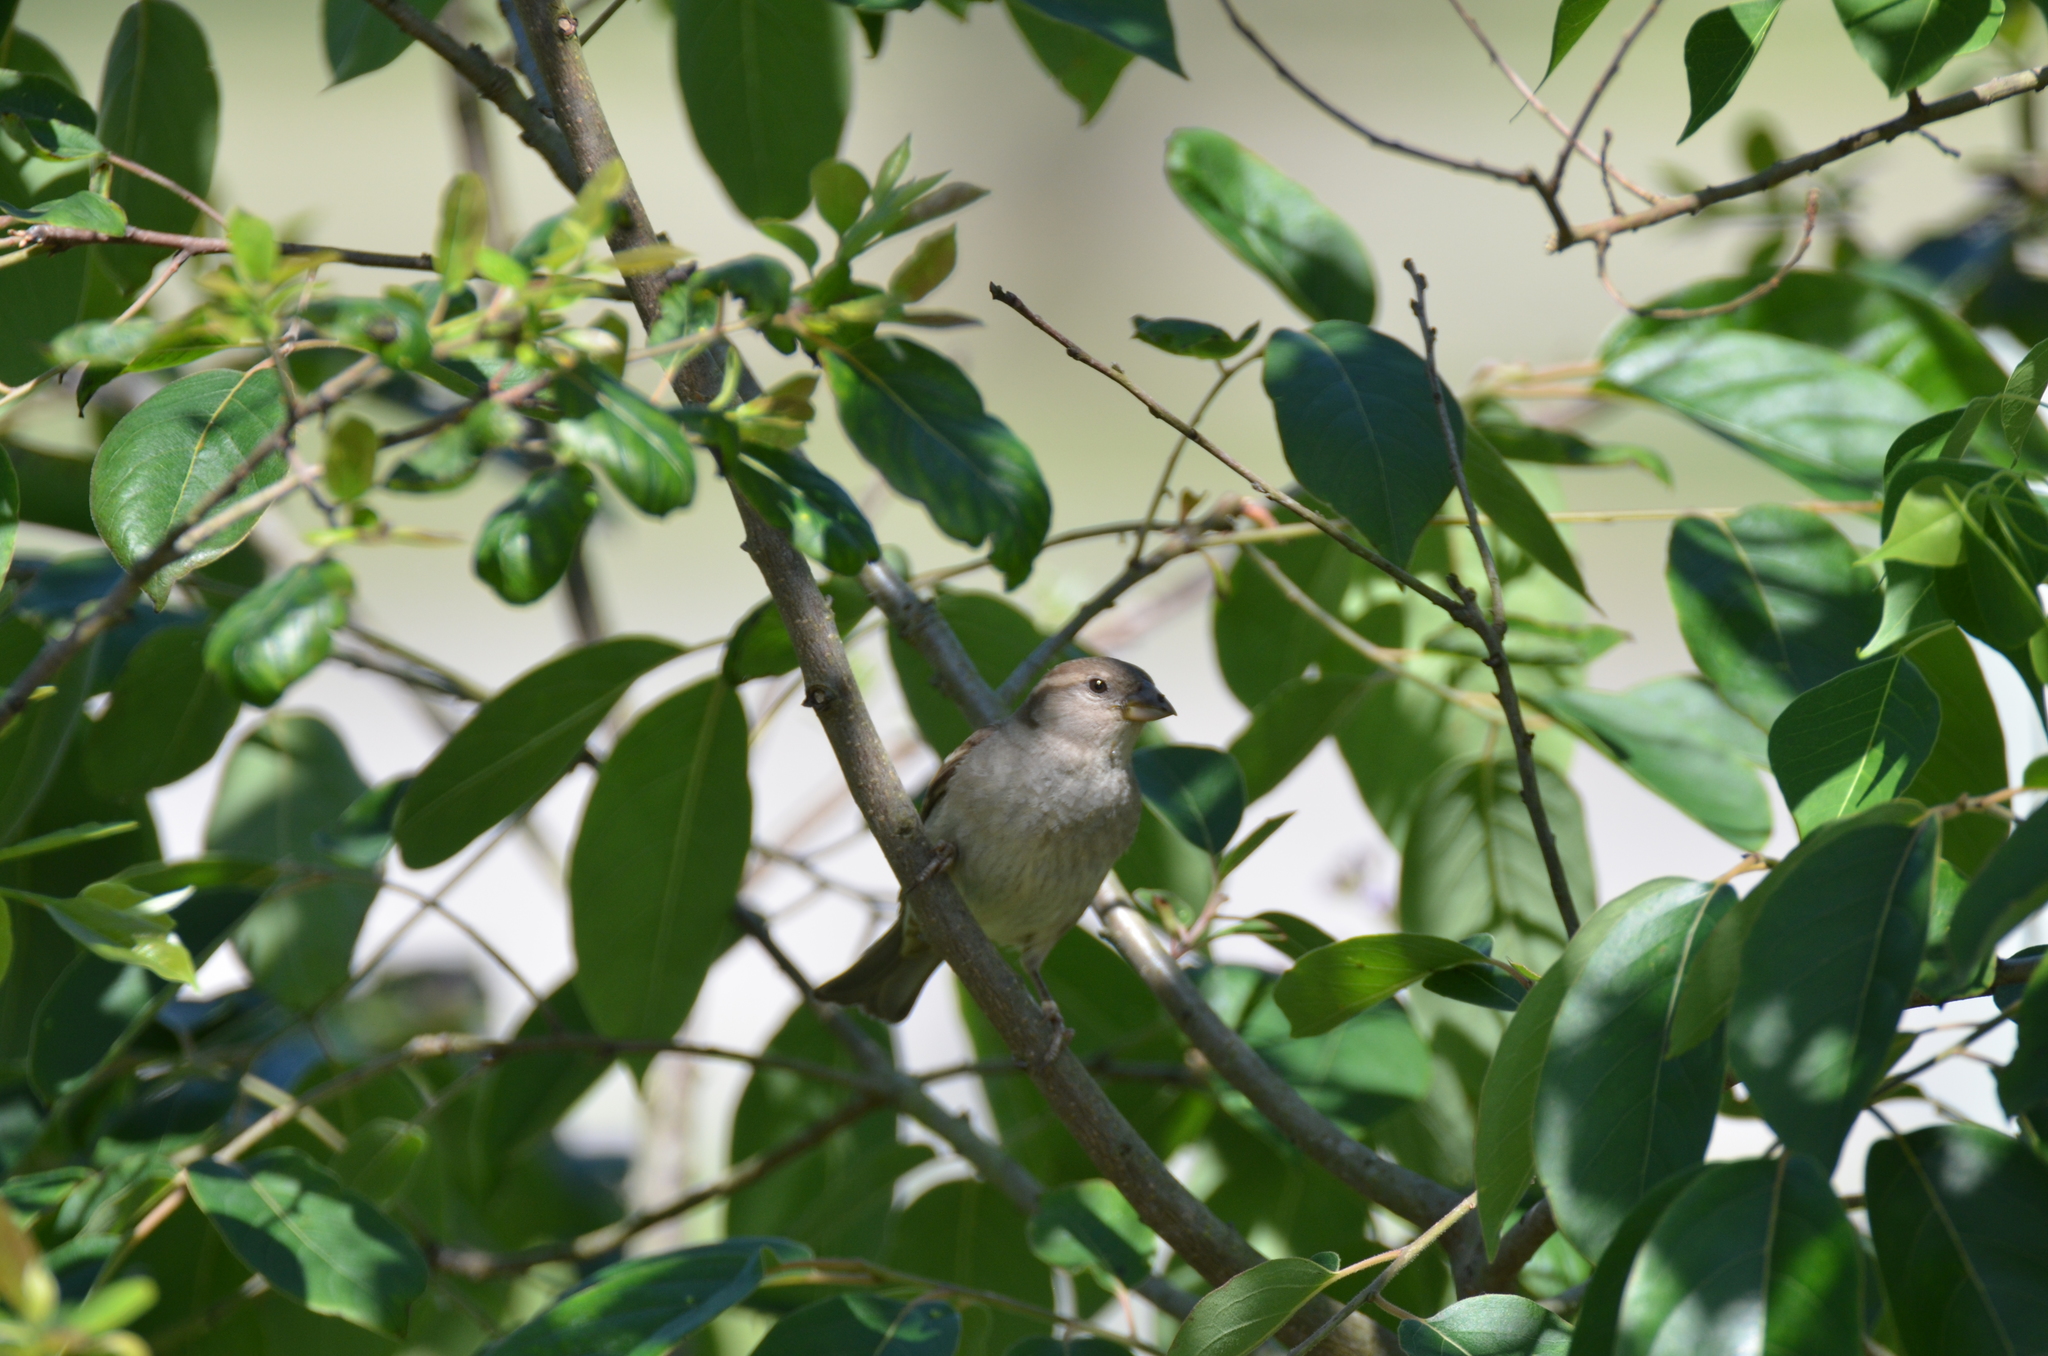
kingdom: Animalia
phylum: Chordata
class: Aves
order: Passeriformes
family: Passeridae
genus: Passer
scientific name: Passer domesticus
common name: House sparrow
